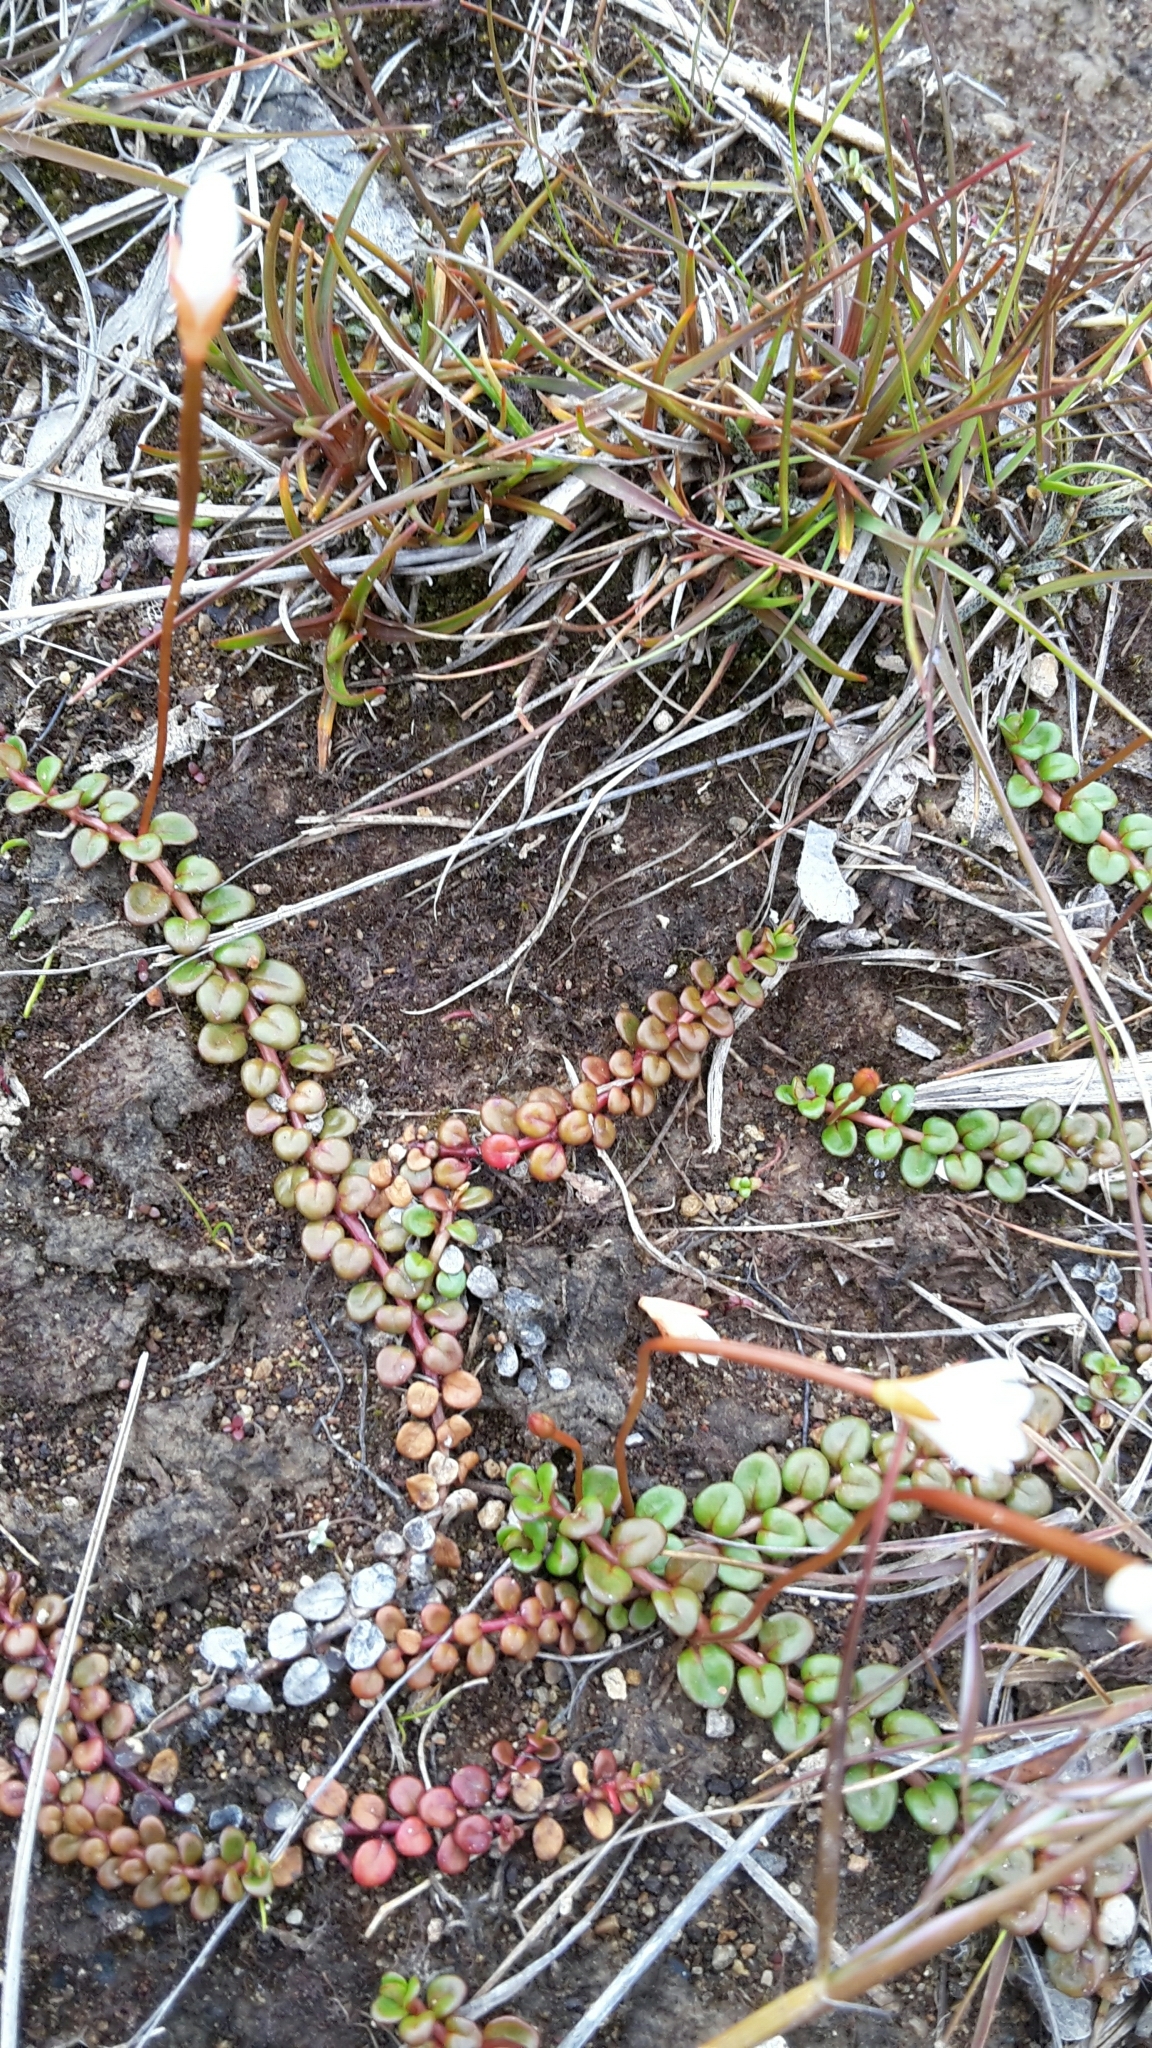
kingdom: Plantae
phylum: Tracheophyta
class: Magnoliopsida
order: Myrtales
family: Onagraceae
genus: Epilobium
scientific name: Epilobium pernitens
